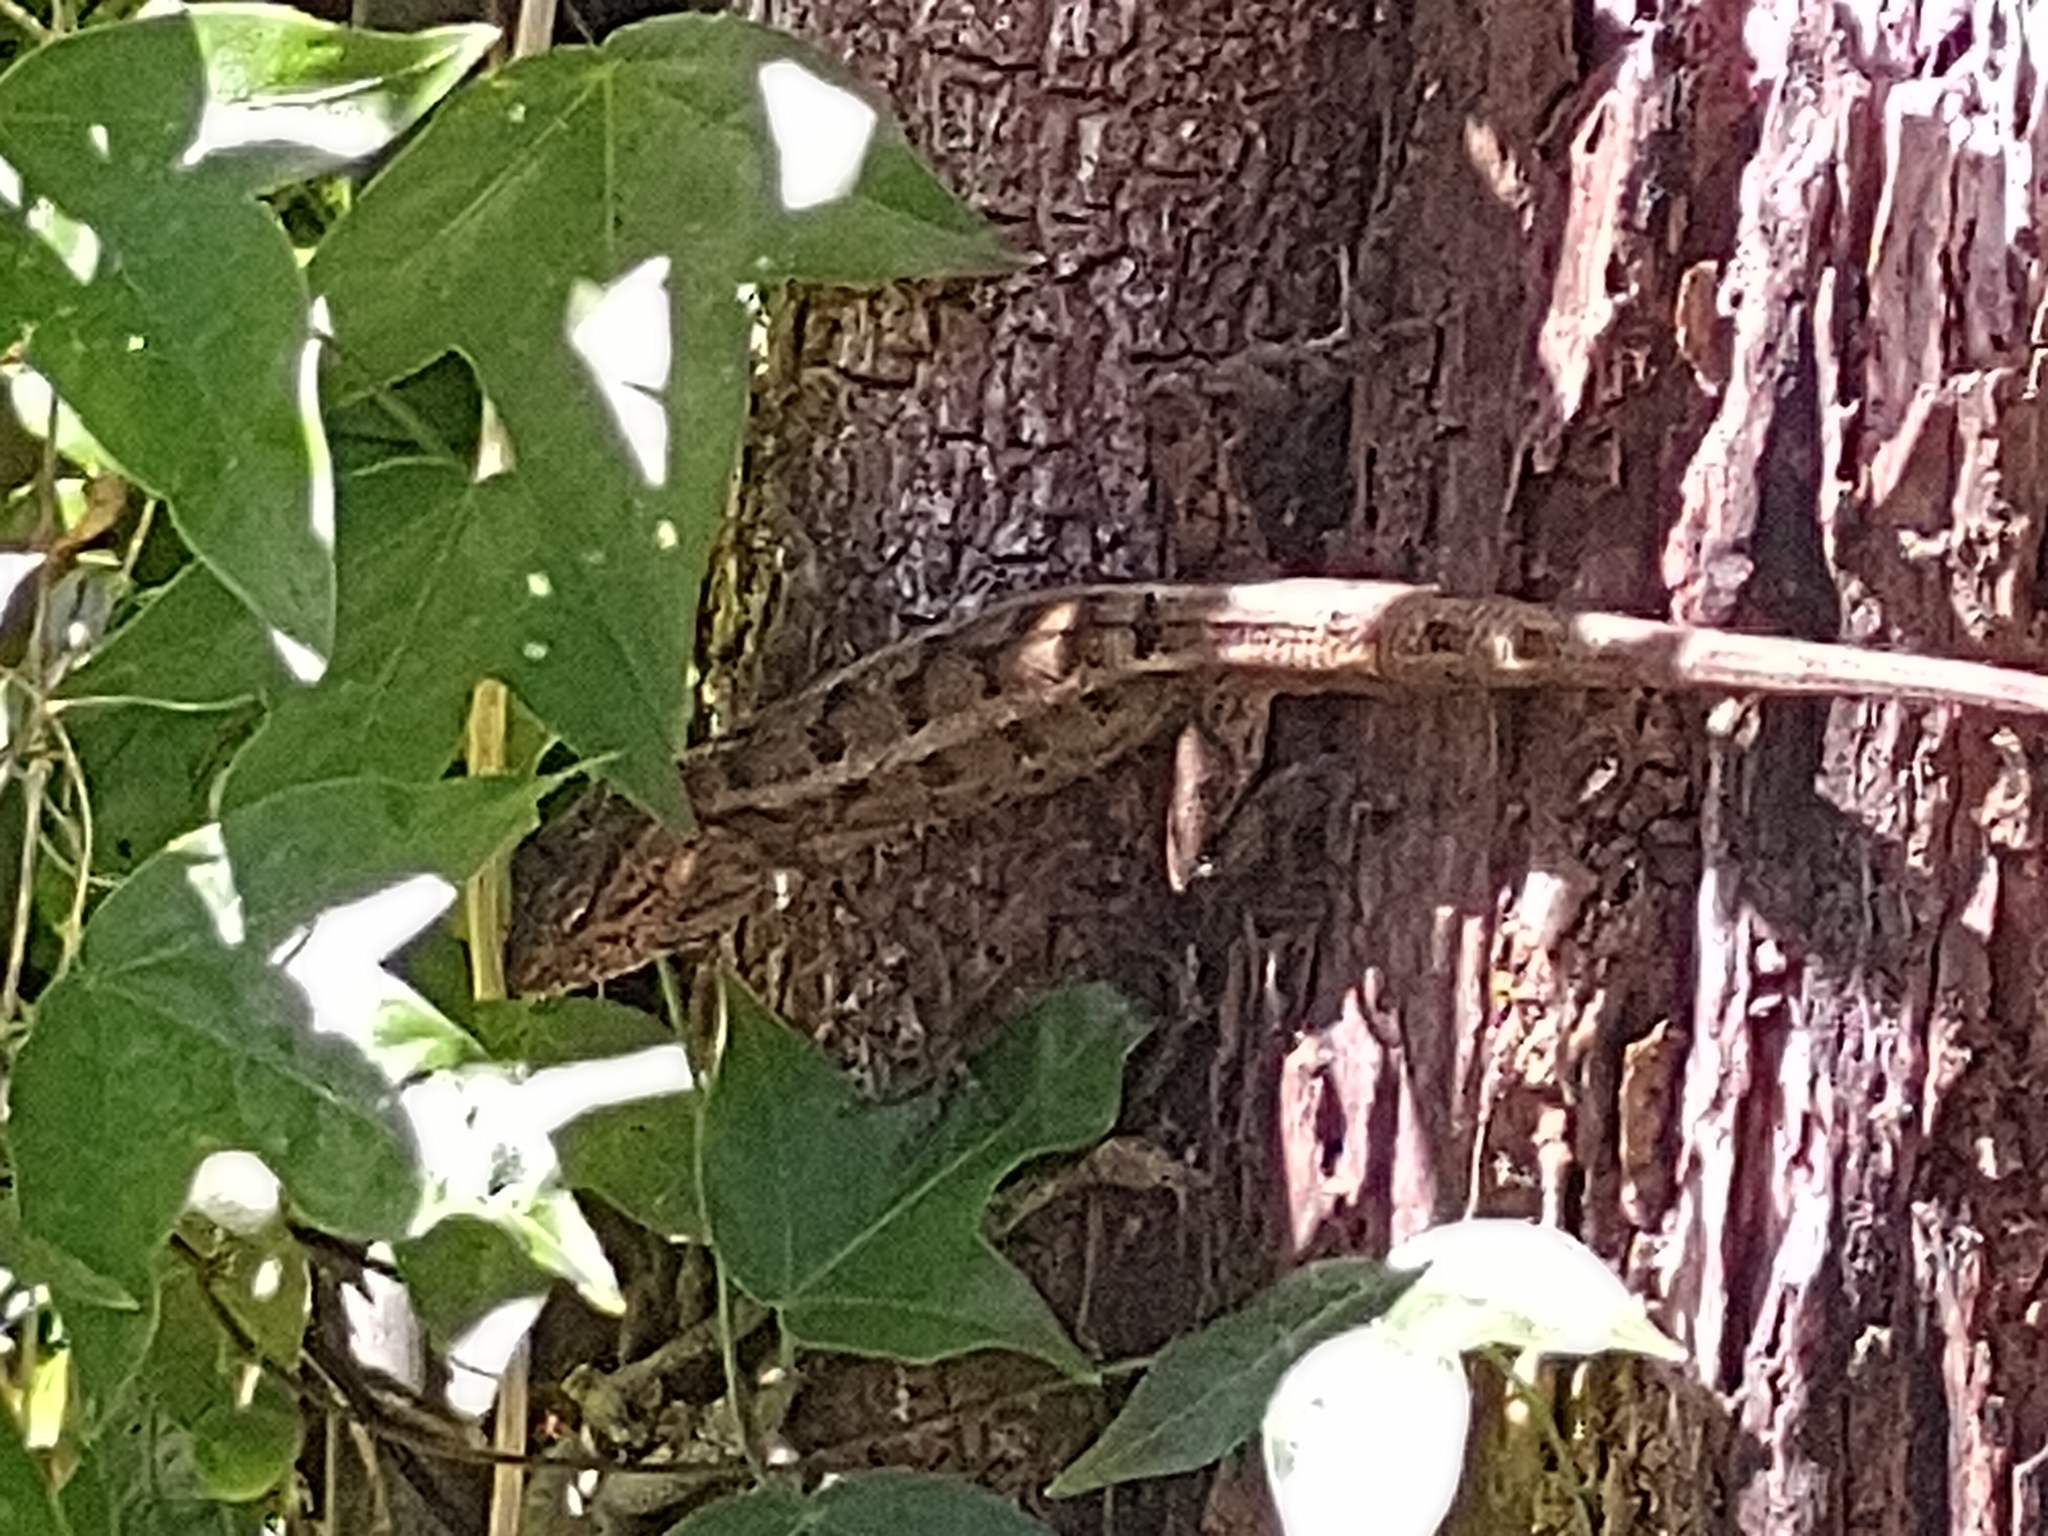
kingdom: Animalia
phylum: Chordata
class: Squamata
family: Agamidae
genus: Calotes
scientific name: Calotes versicolor
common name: Oriental garden lizard
